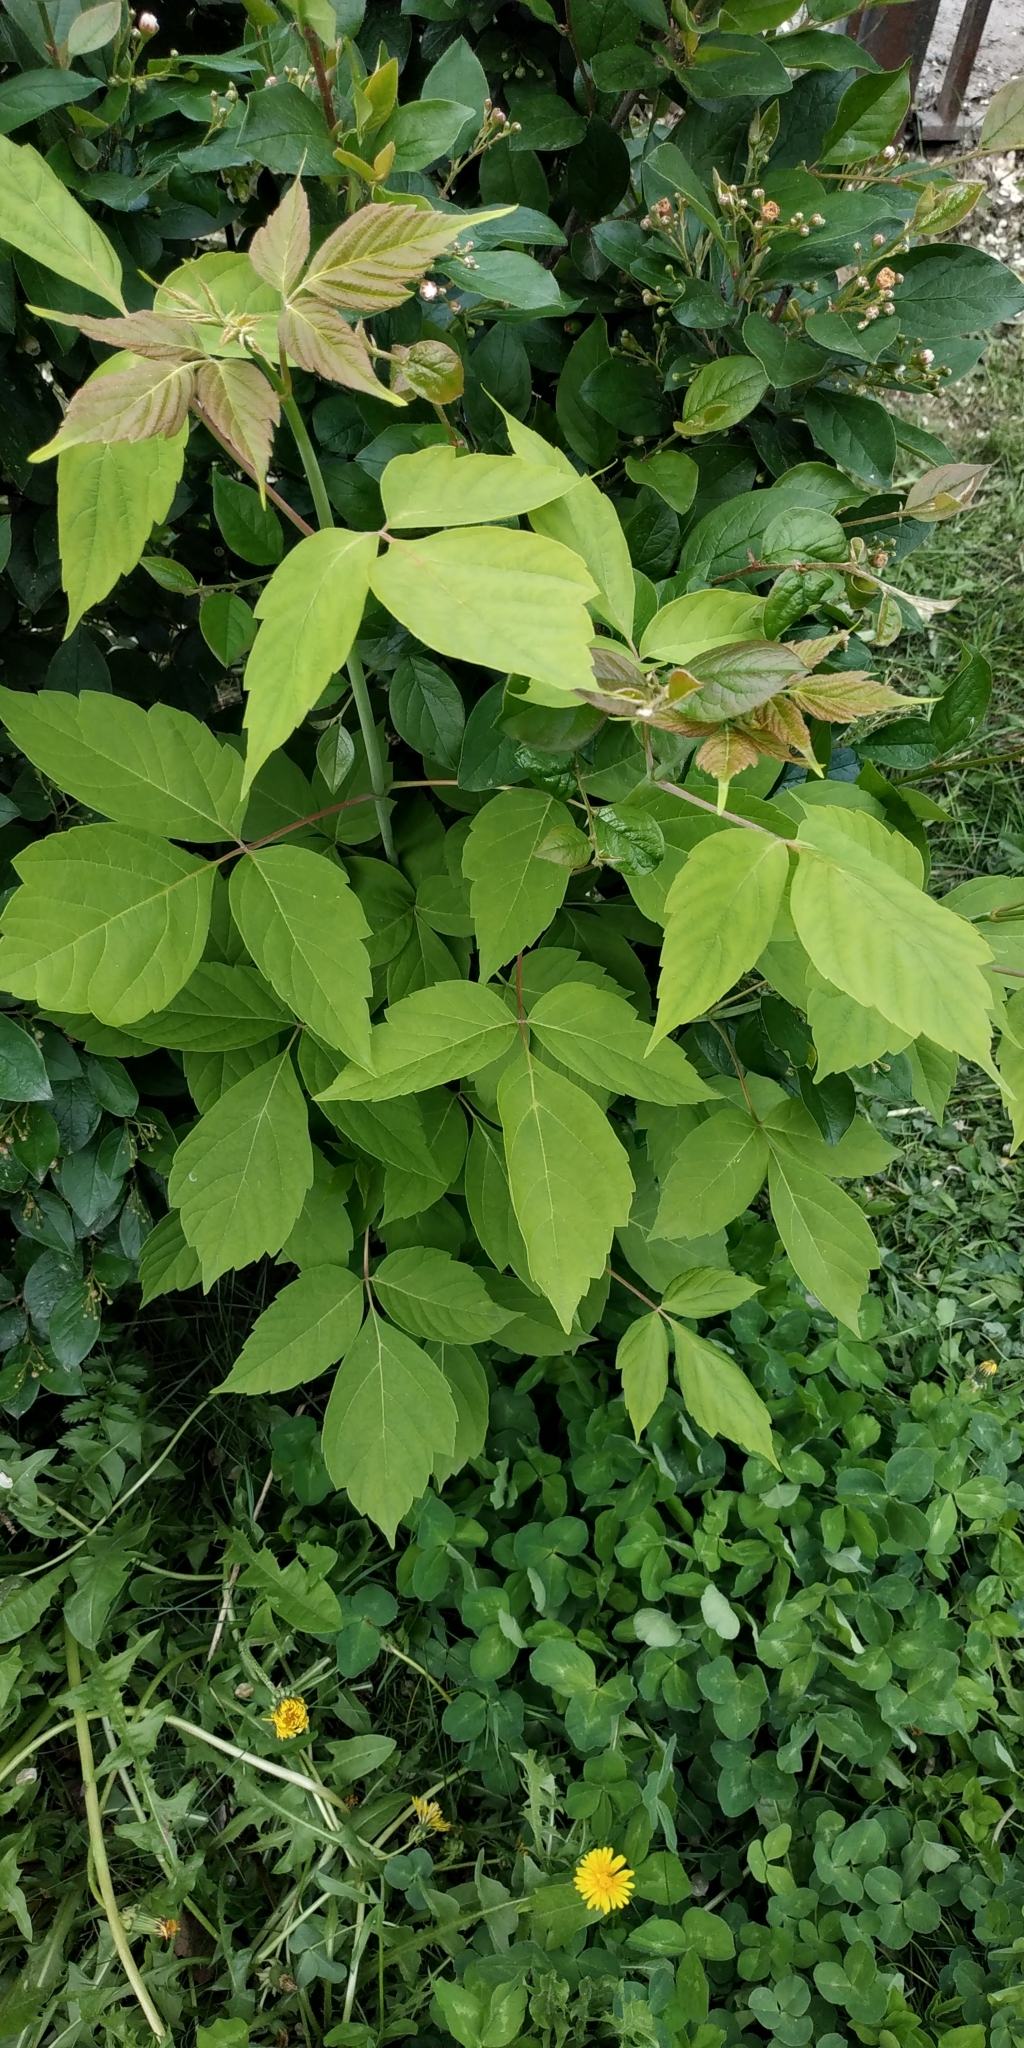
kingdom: Plantae
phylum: Tracheophyta
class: Magnoliopsida
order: Sapindales
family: Sapindaceae
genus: Acer
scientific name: Acer negundo
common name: Ashleaf maple
